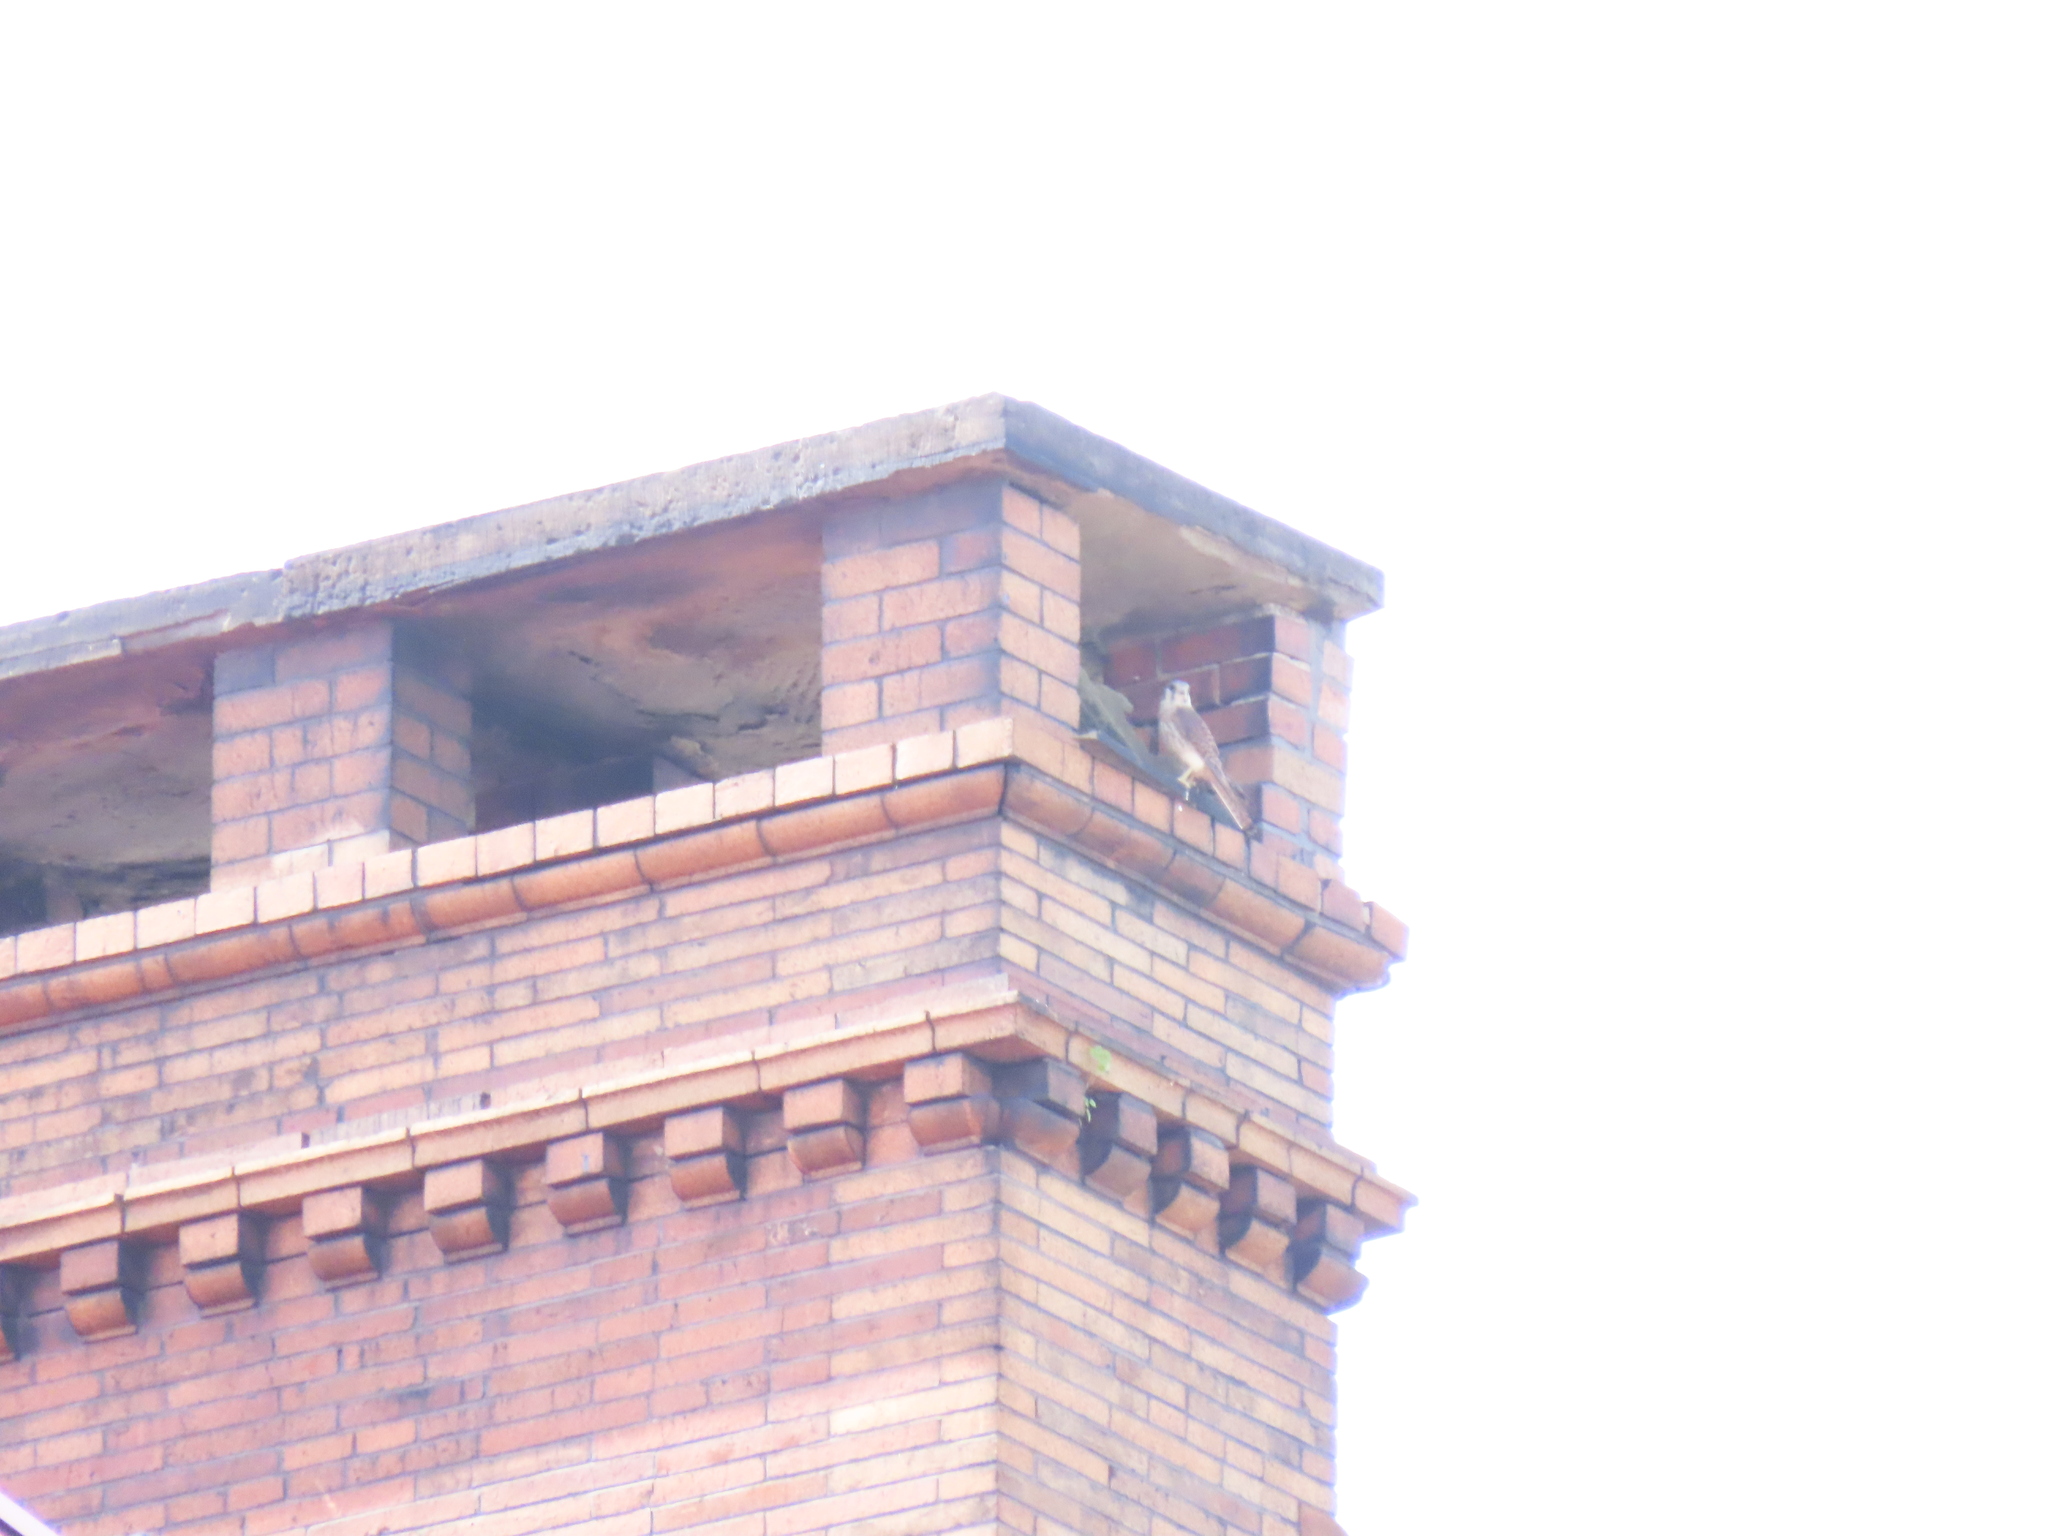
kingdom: Animalia
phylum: Chordata
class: Aves
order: Falconiformes
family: Falconidae
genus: Falco
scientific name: Falco sparverius
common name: American kestrel
